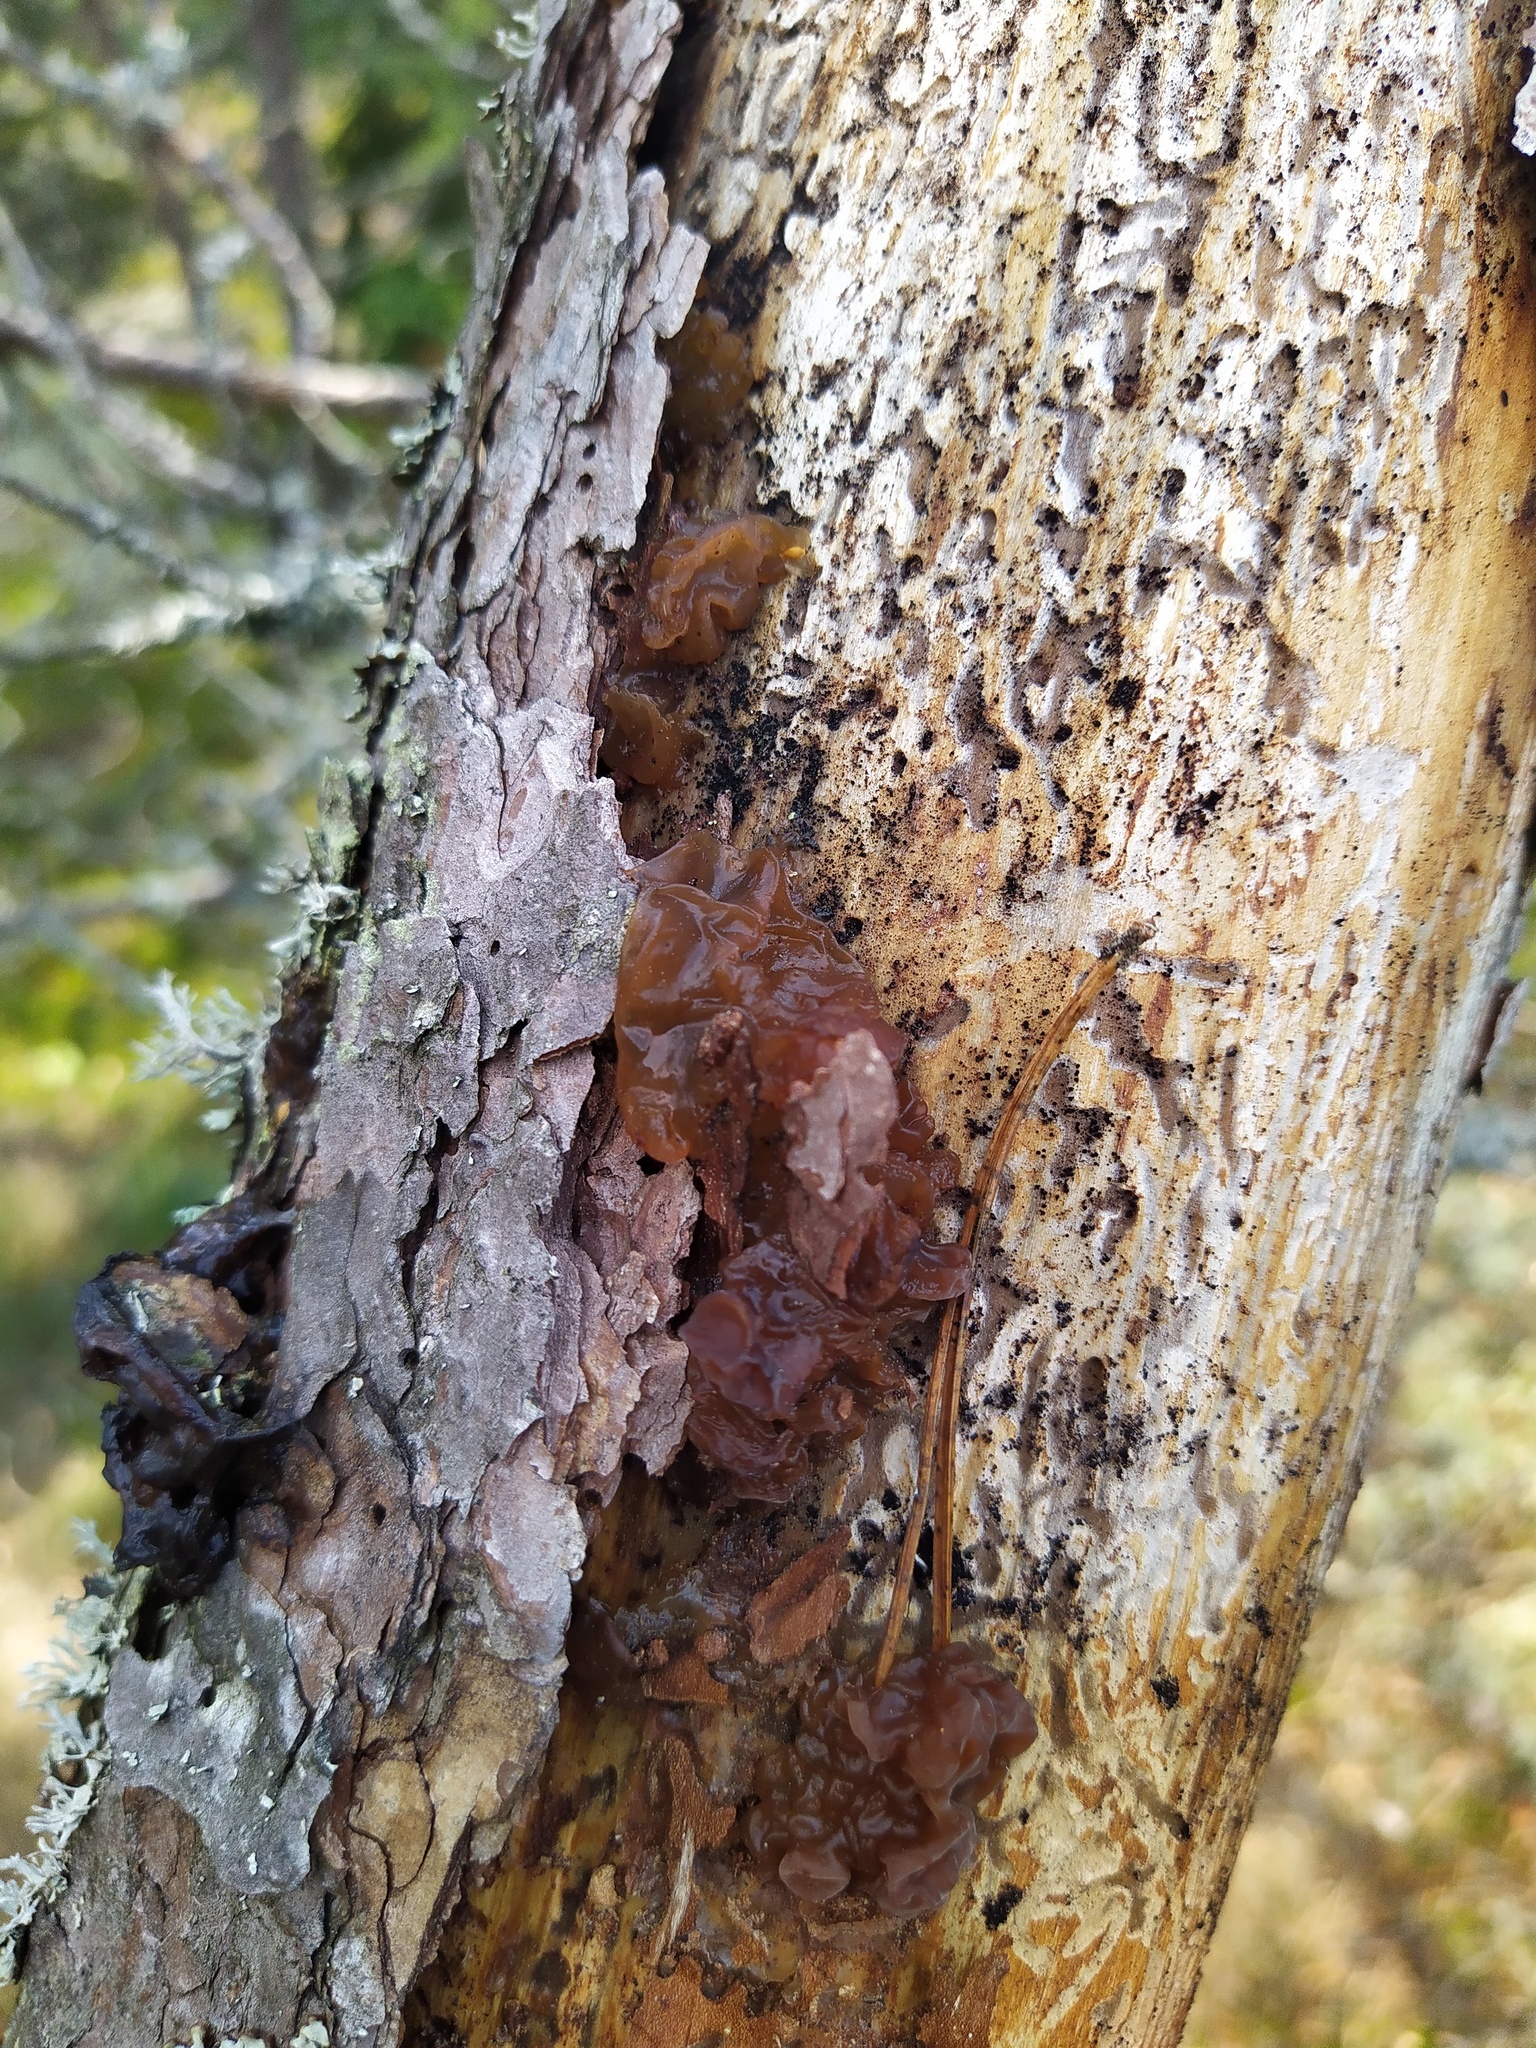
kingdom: Fungi
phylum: Basidiomycota
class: Tremellomycetes
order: Tremellales
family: Tremellaceae
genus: Phaeotremella
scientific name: Phaeotremella foliacea
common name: Leafy brain
